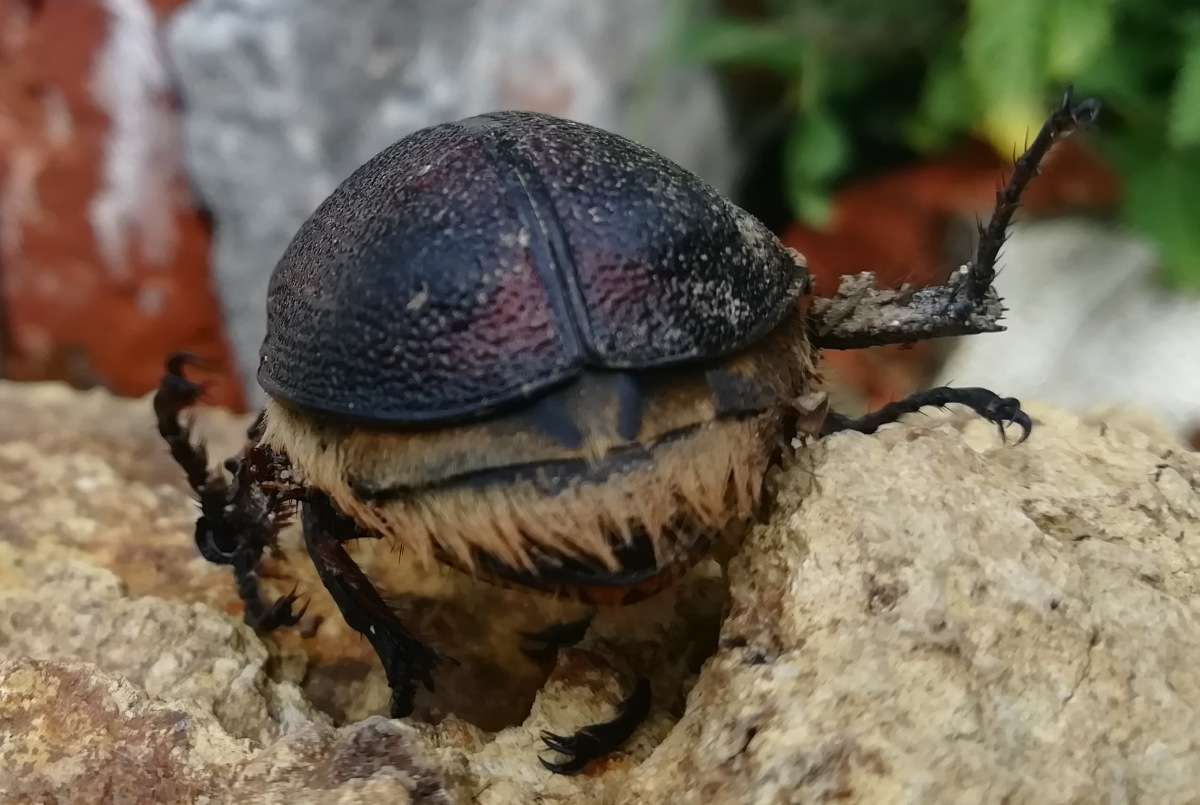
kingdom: Animalia
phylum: Arthropoda
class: Insecta
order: Coleoptera
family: Scarabaeidae
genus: Golofa
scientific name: Golofa aegeon
